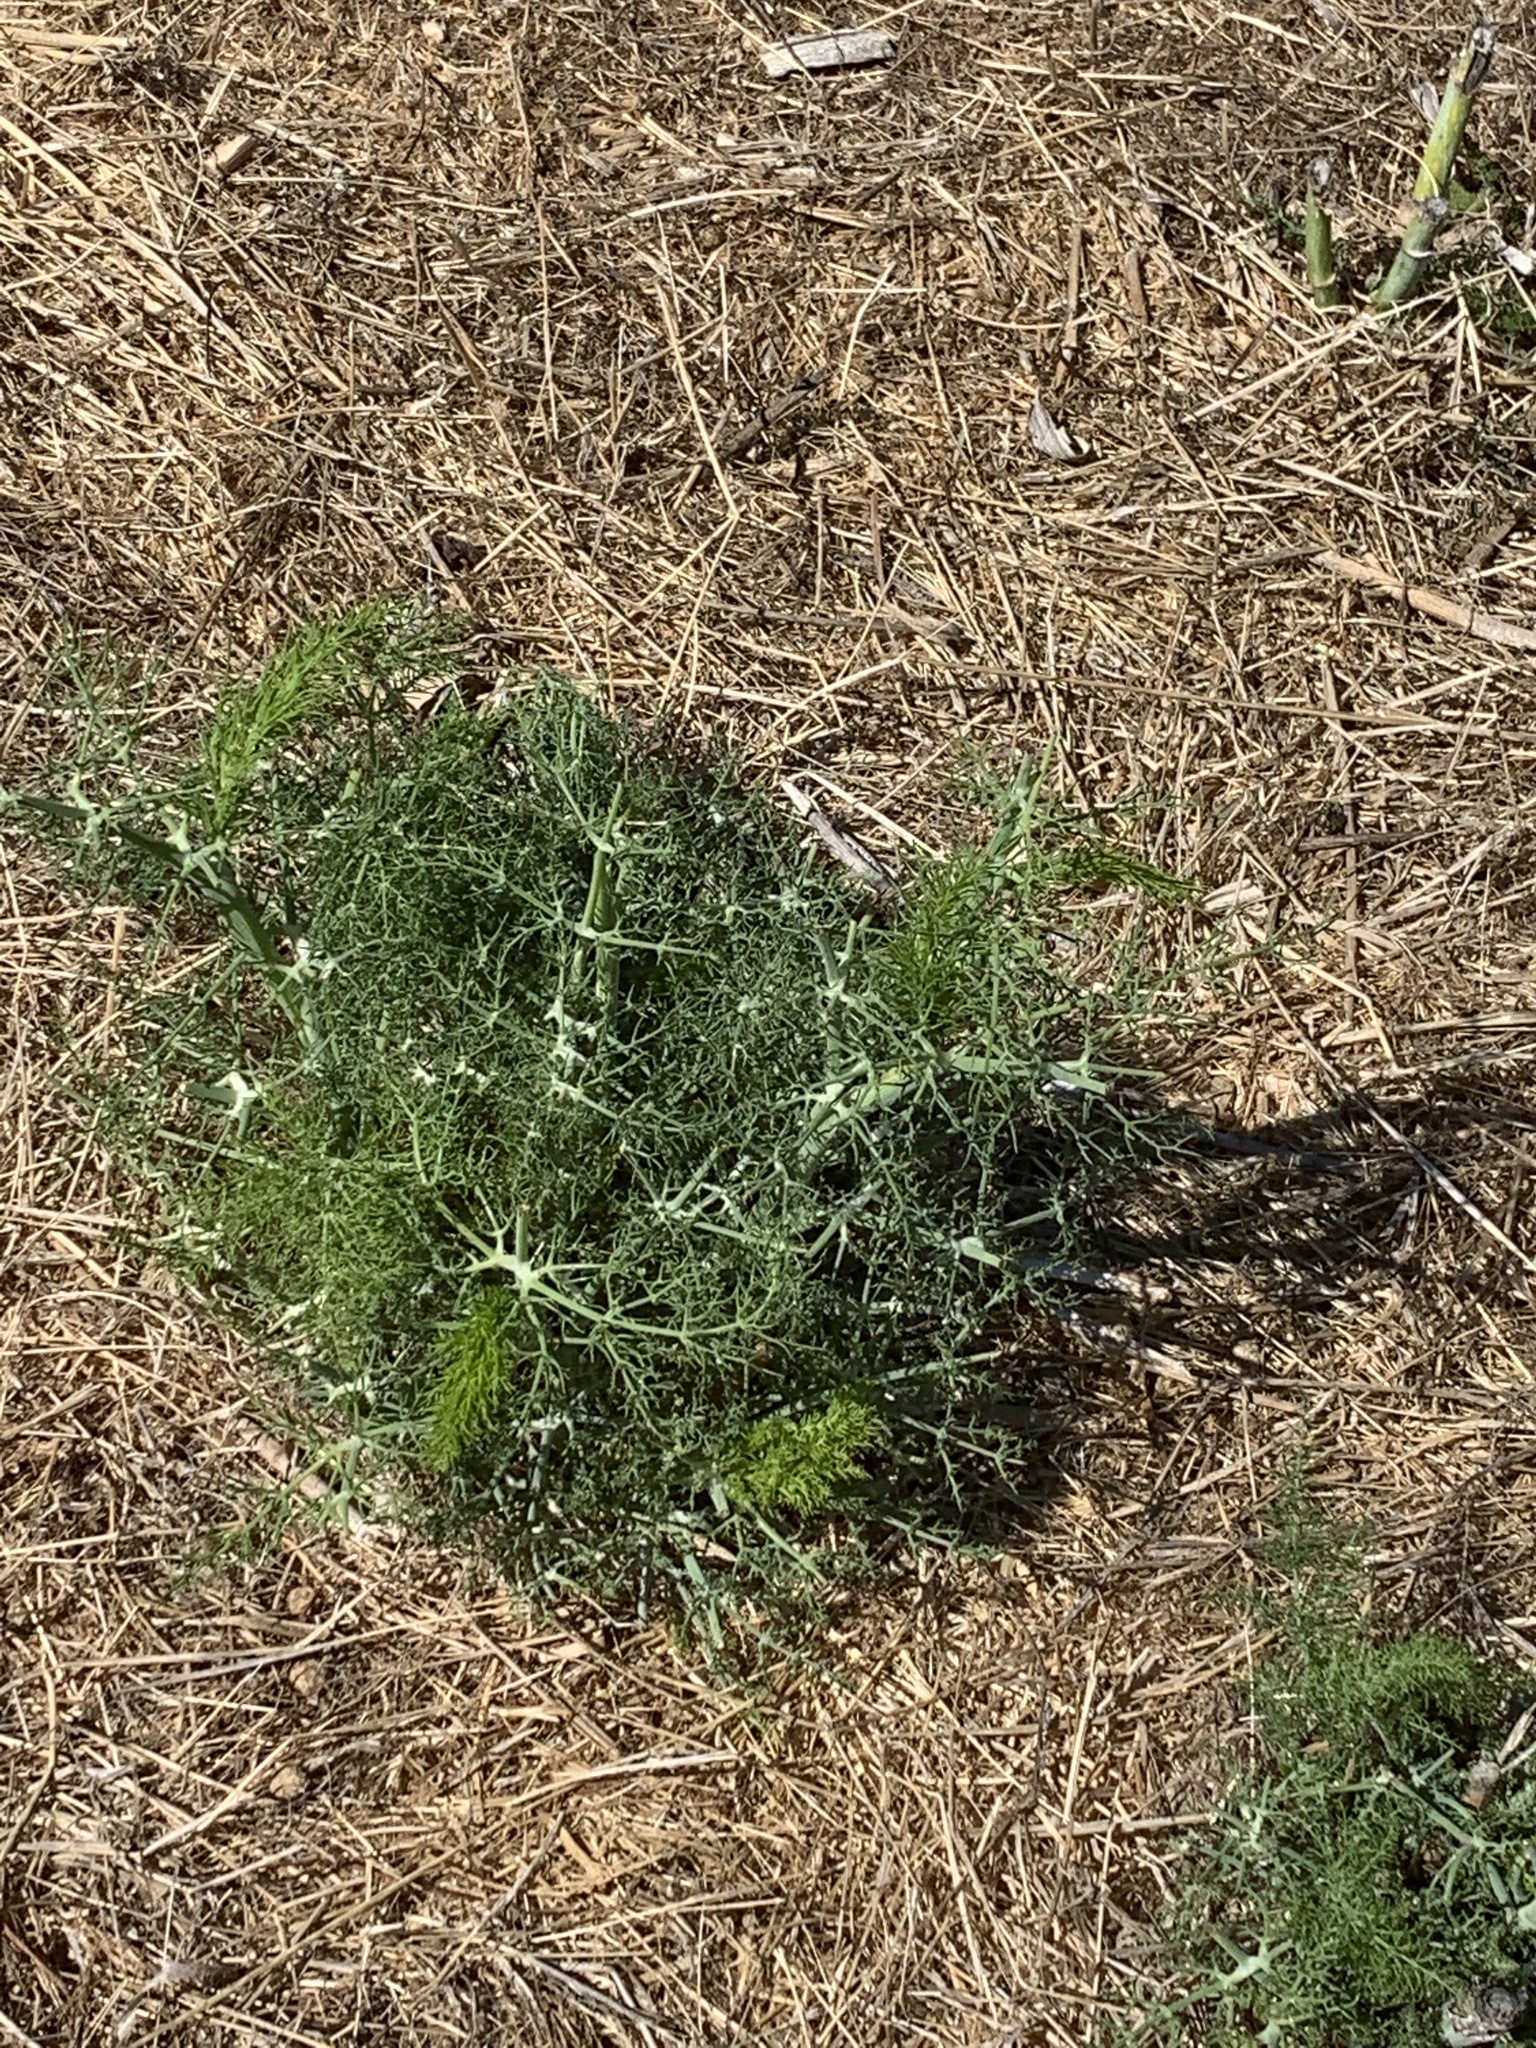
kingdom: Plantae
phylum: Tracheophyta
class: Magnoliopsida
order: Apiales
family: Apiaceae
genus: Foeniculum
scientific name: Foeniculum vulgare
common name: Fennel
